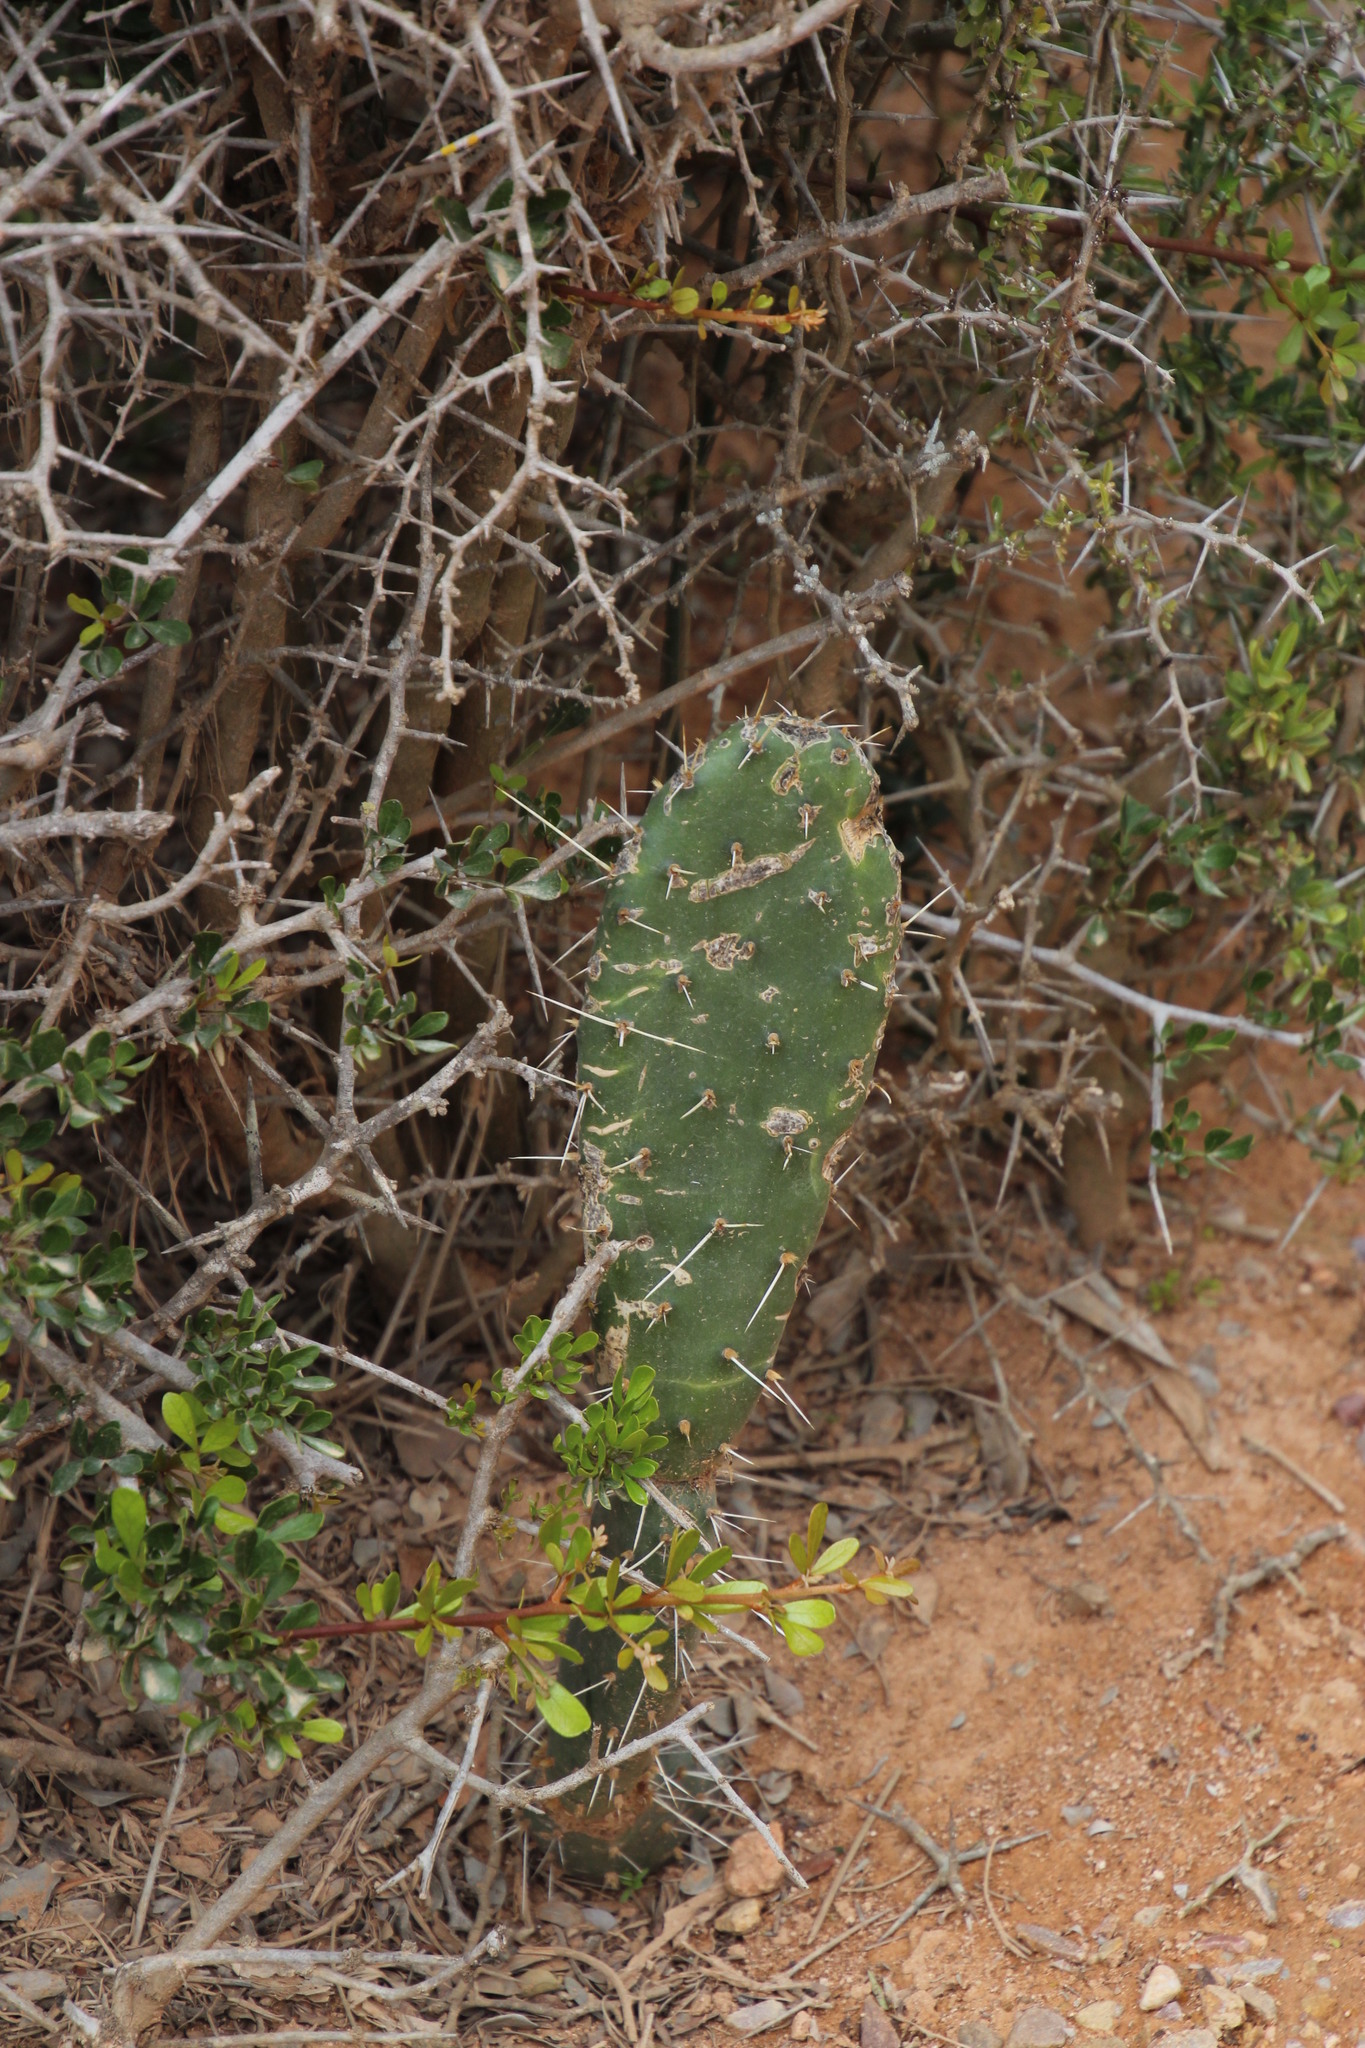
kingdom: Plantae
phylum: Tracheophyta
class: Magnoliopsida
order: Caryophyllales
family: Cactaceae
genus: Opuntia
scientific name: Opuntia ficus-indica
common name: Barbary fig
